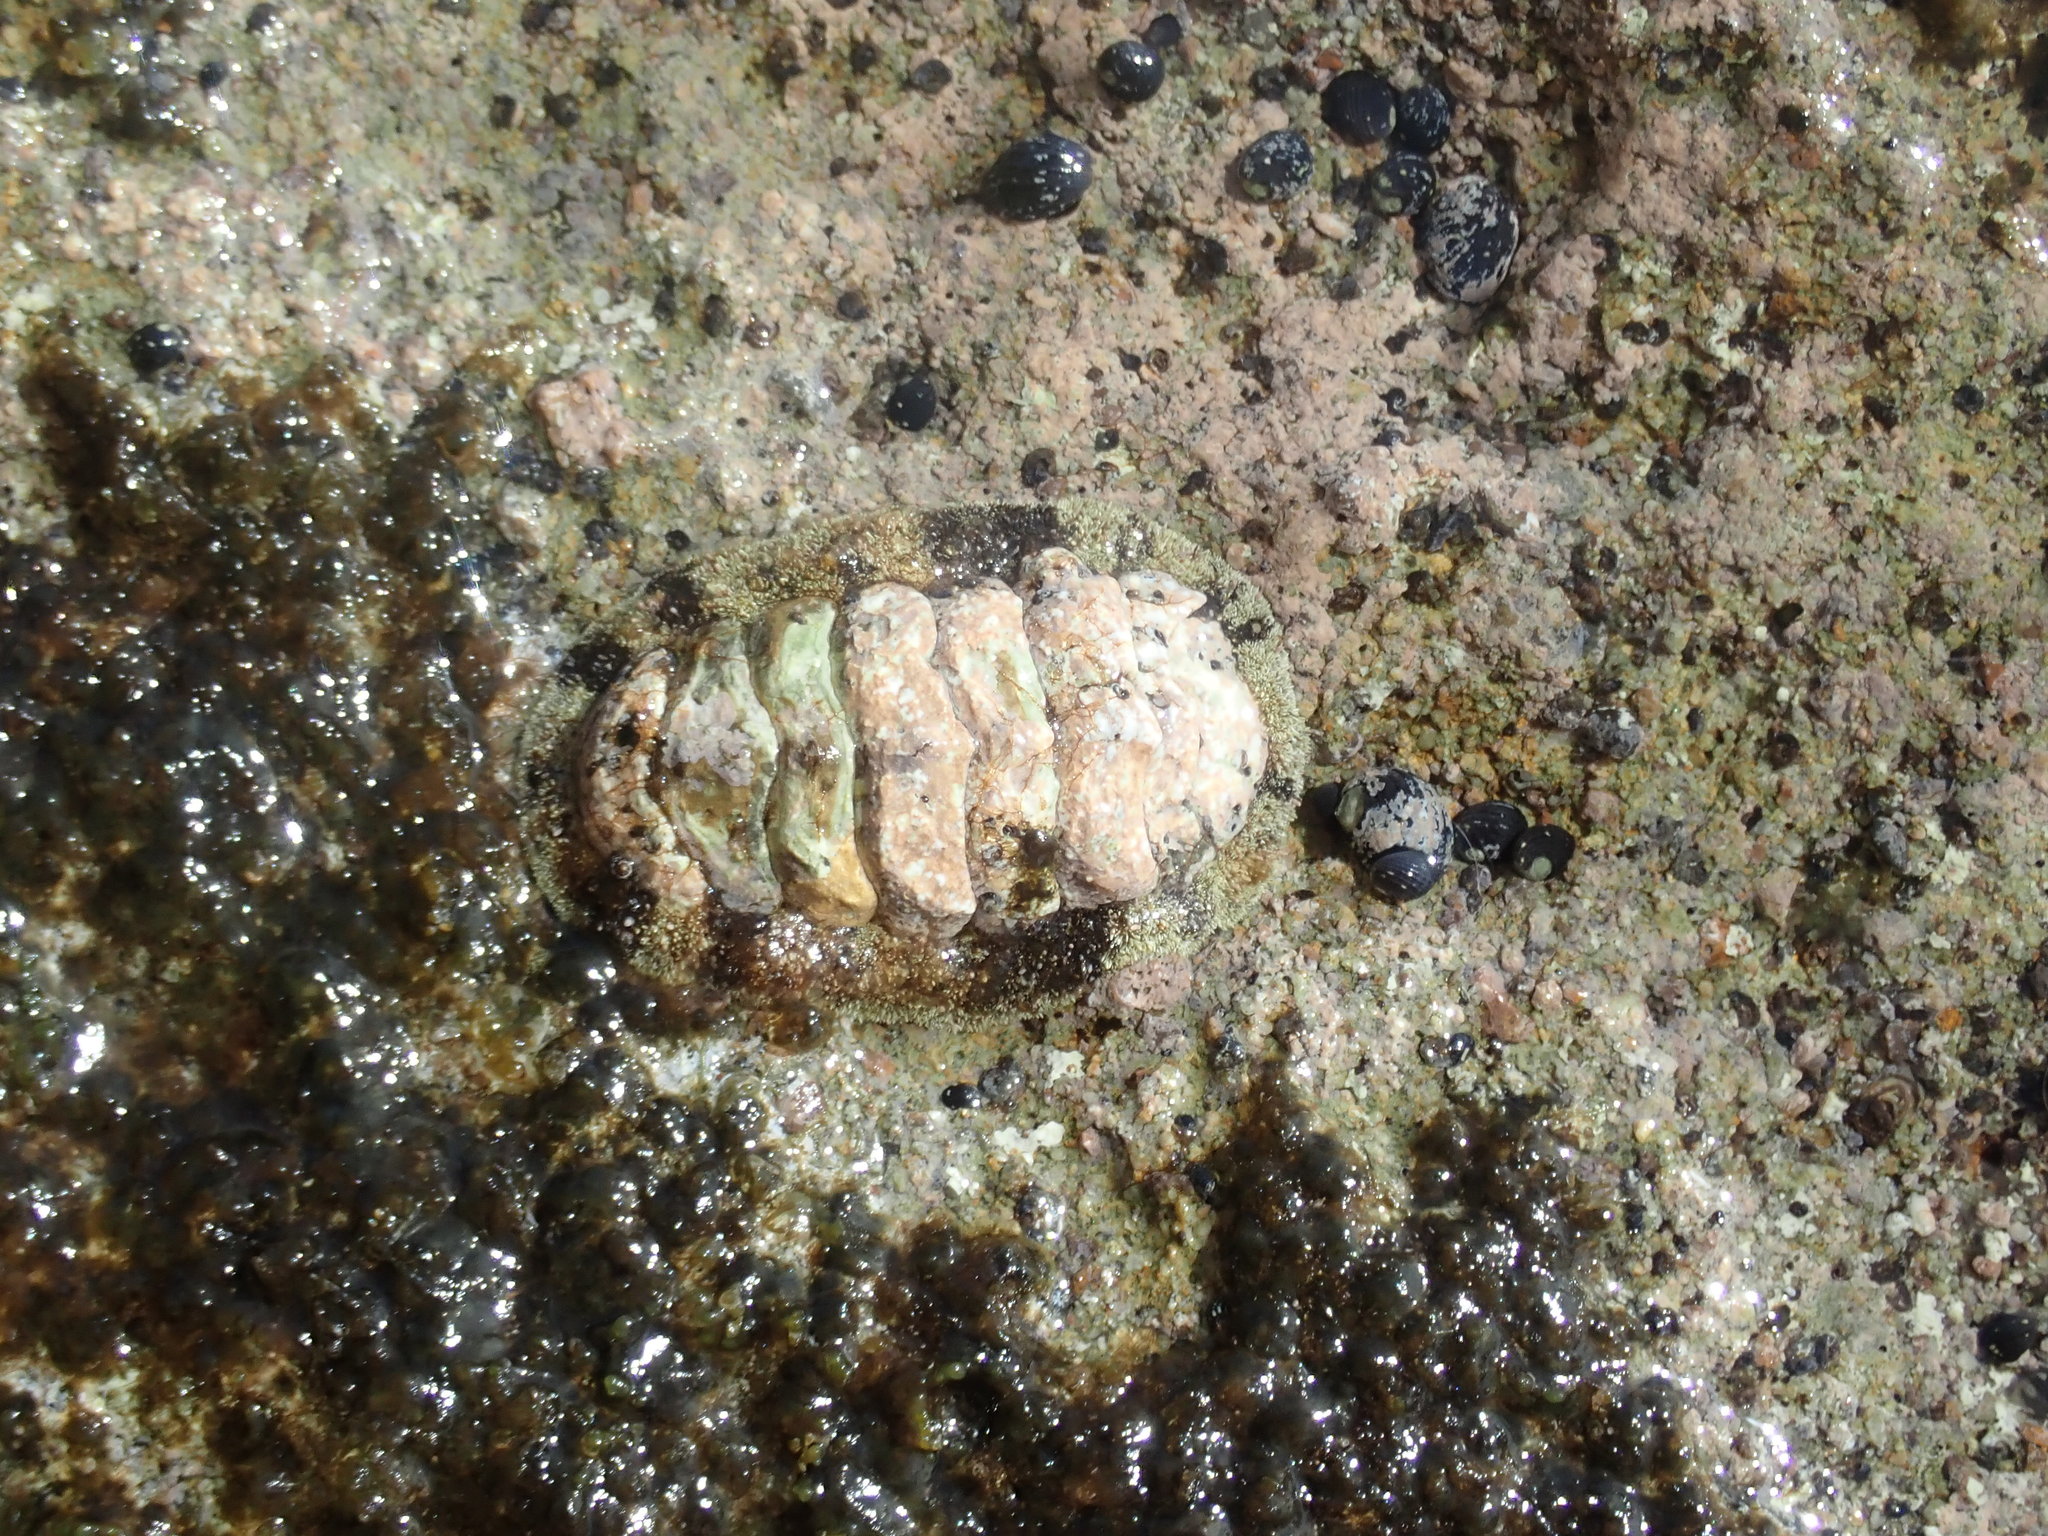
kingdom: Animalia
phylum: Mollusca
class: Polyplacophora
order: Chitonida
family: Chitonidae
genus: Acanthopleura
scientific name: Acanthopleura granulata
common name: West indian fuzzy chiton
